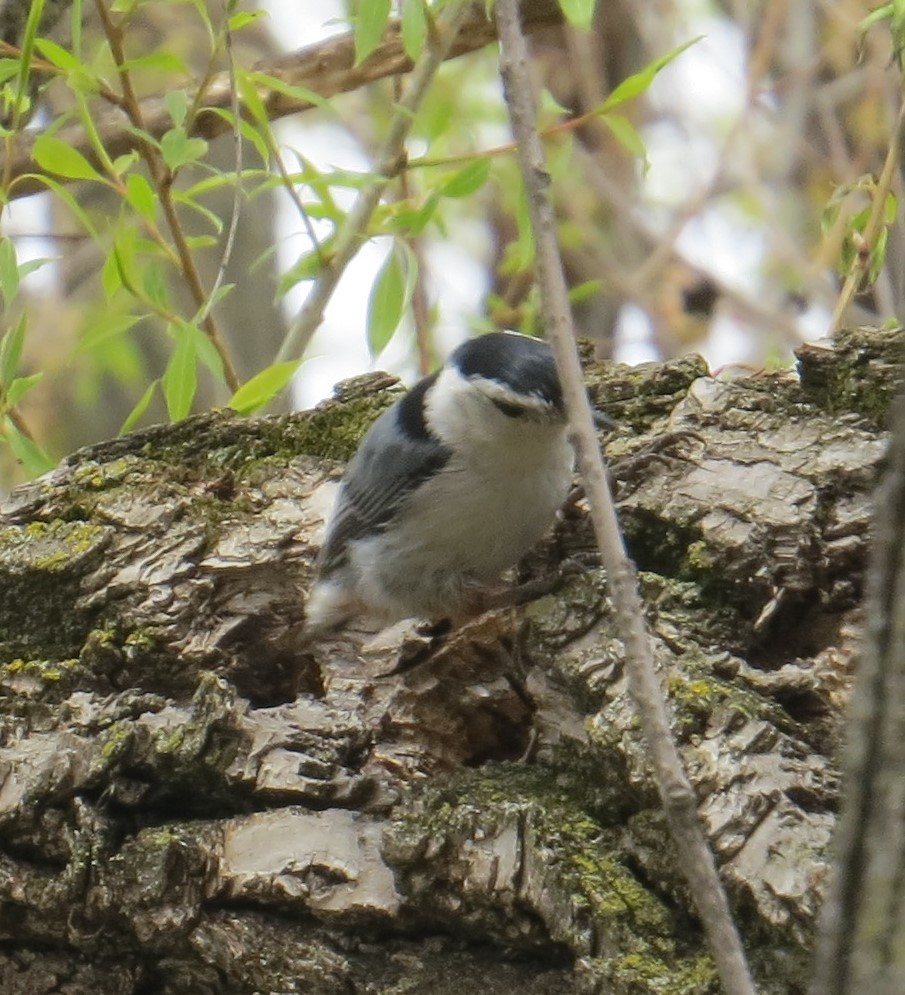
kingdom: Animalia
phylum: Chordata
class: Aves
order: Passeriformes
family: Sittidae
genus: Sitta
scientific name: Sitta carolinensis
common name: White-breasted nuthatch
